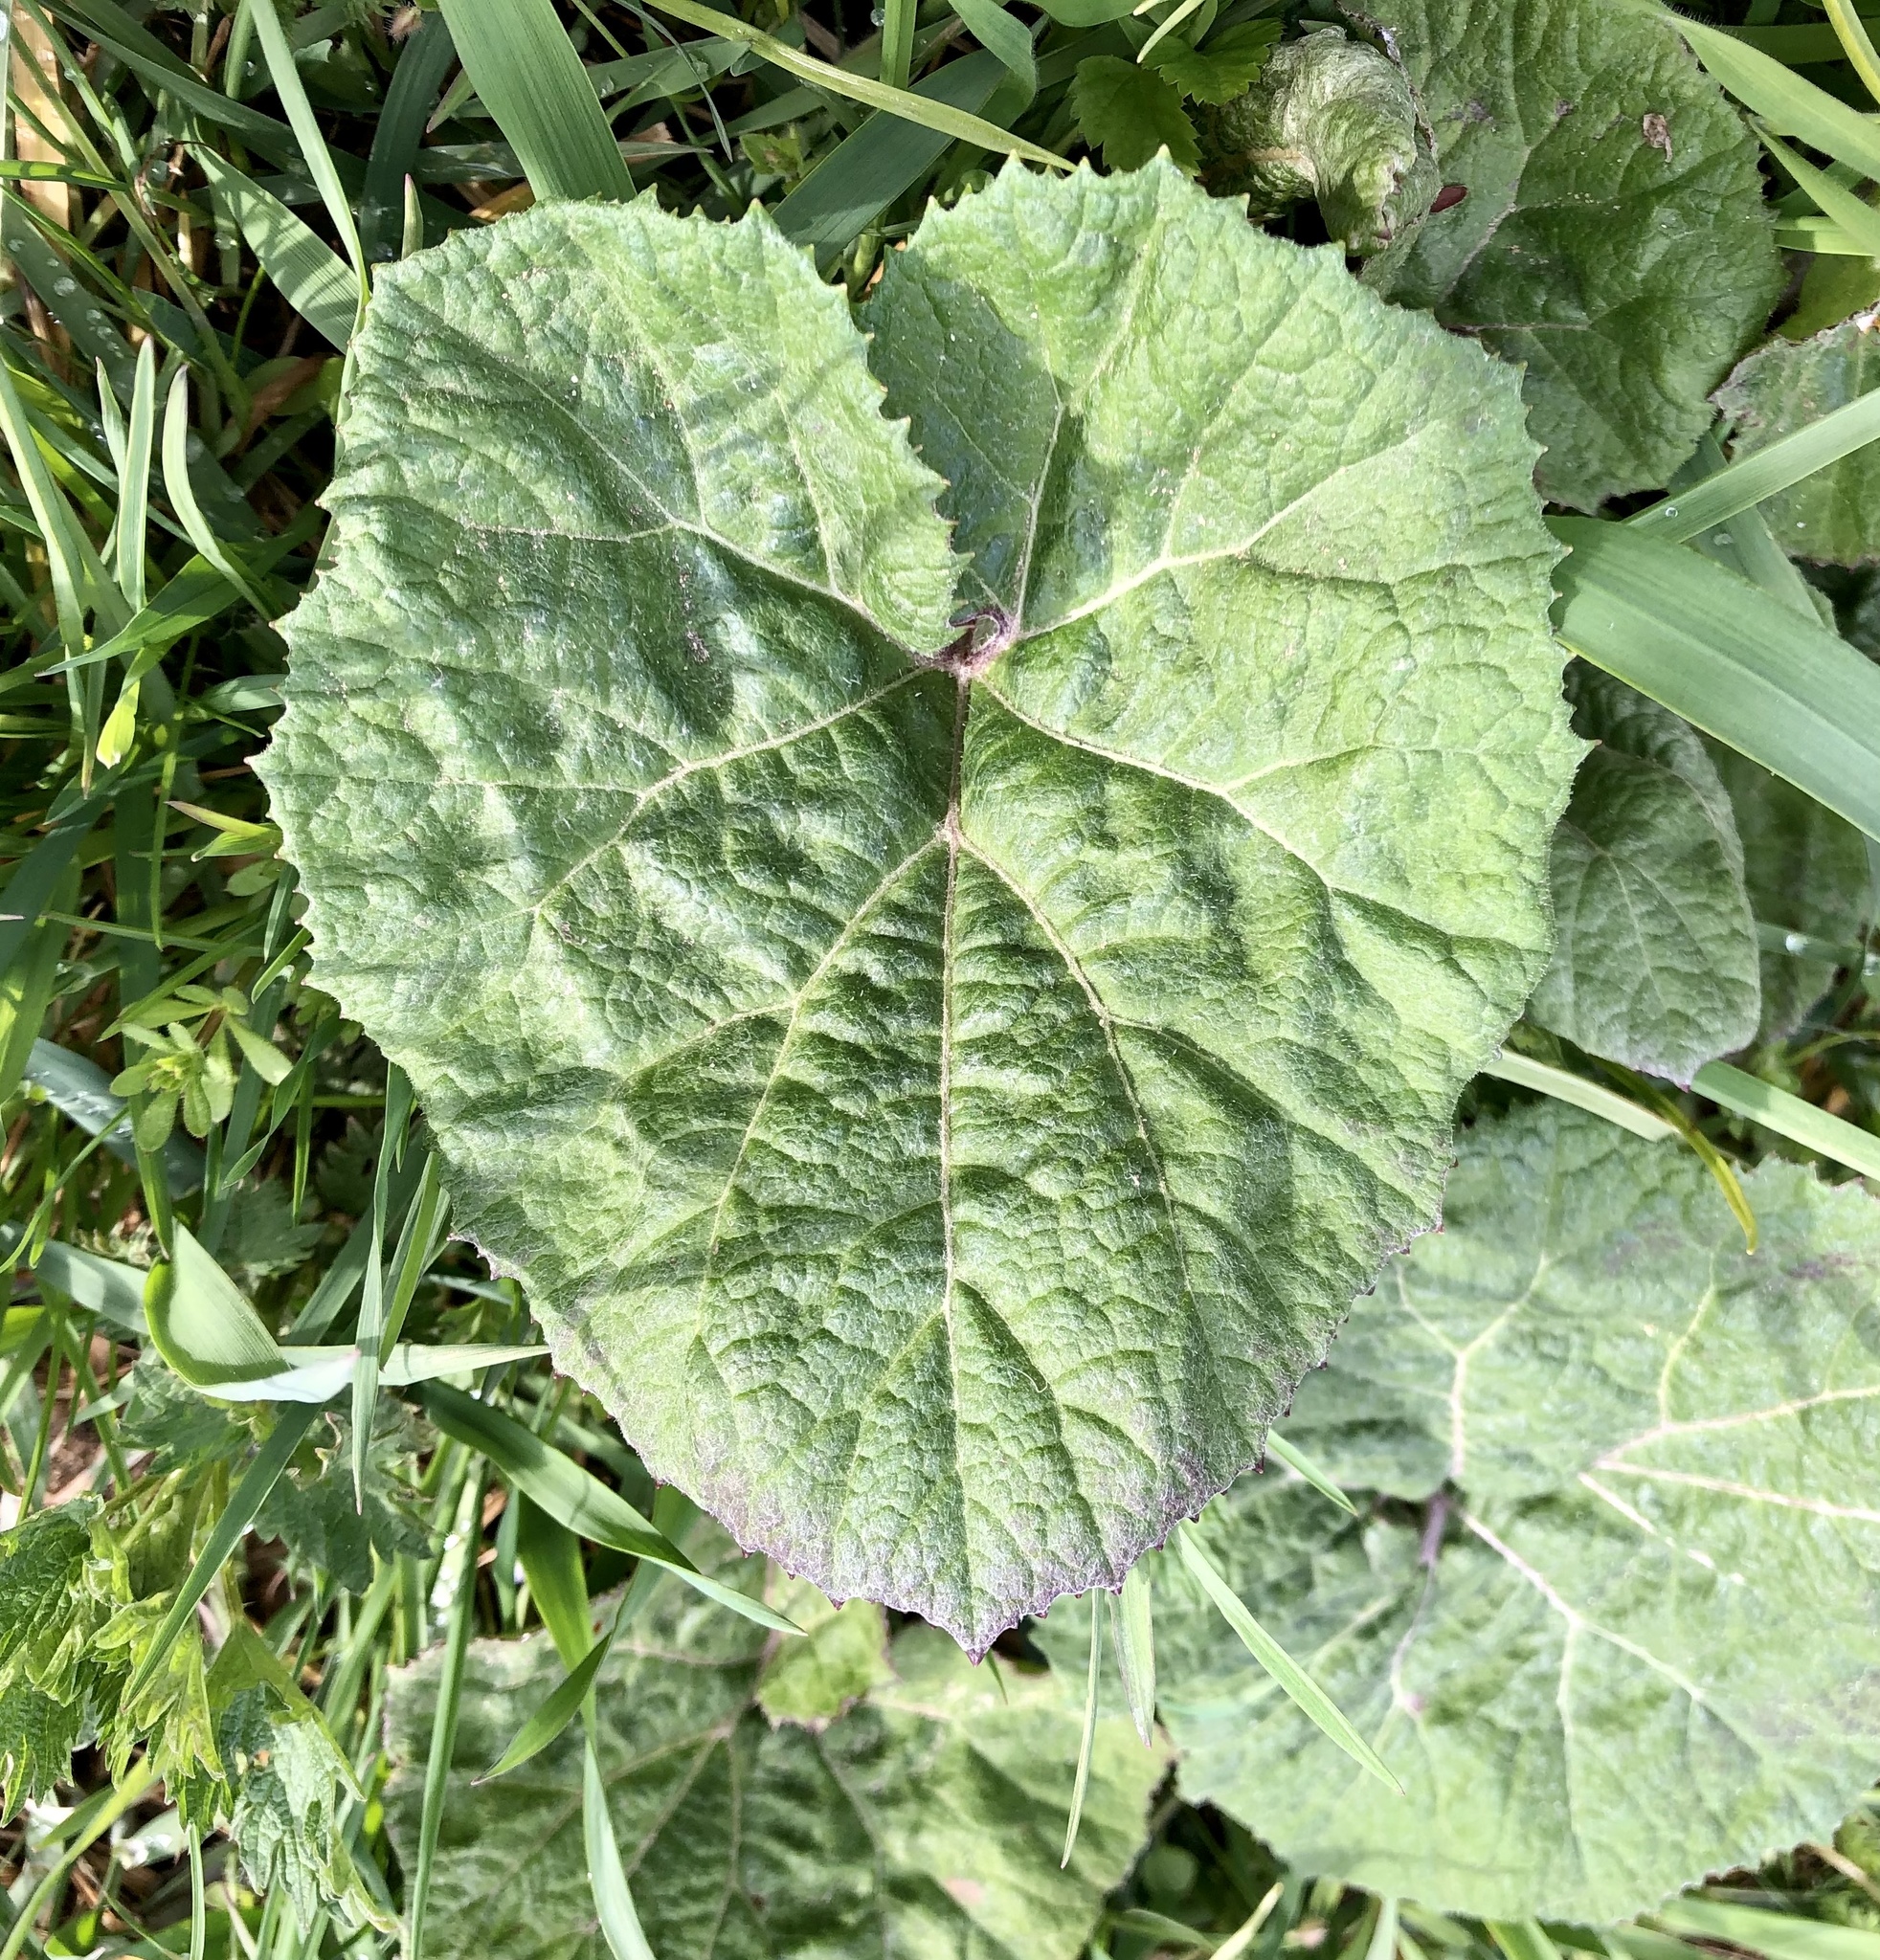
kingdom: Plantae
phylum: Tracheophyta
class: Magnoliopsida
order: Asterales
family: Asteraceae
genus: Petasites
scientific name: Petasites hybridus
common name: Butterbur
